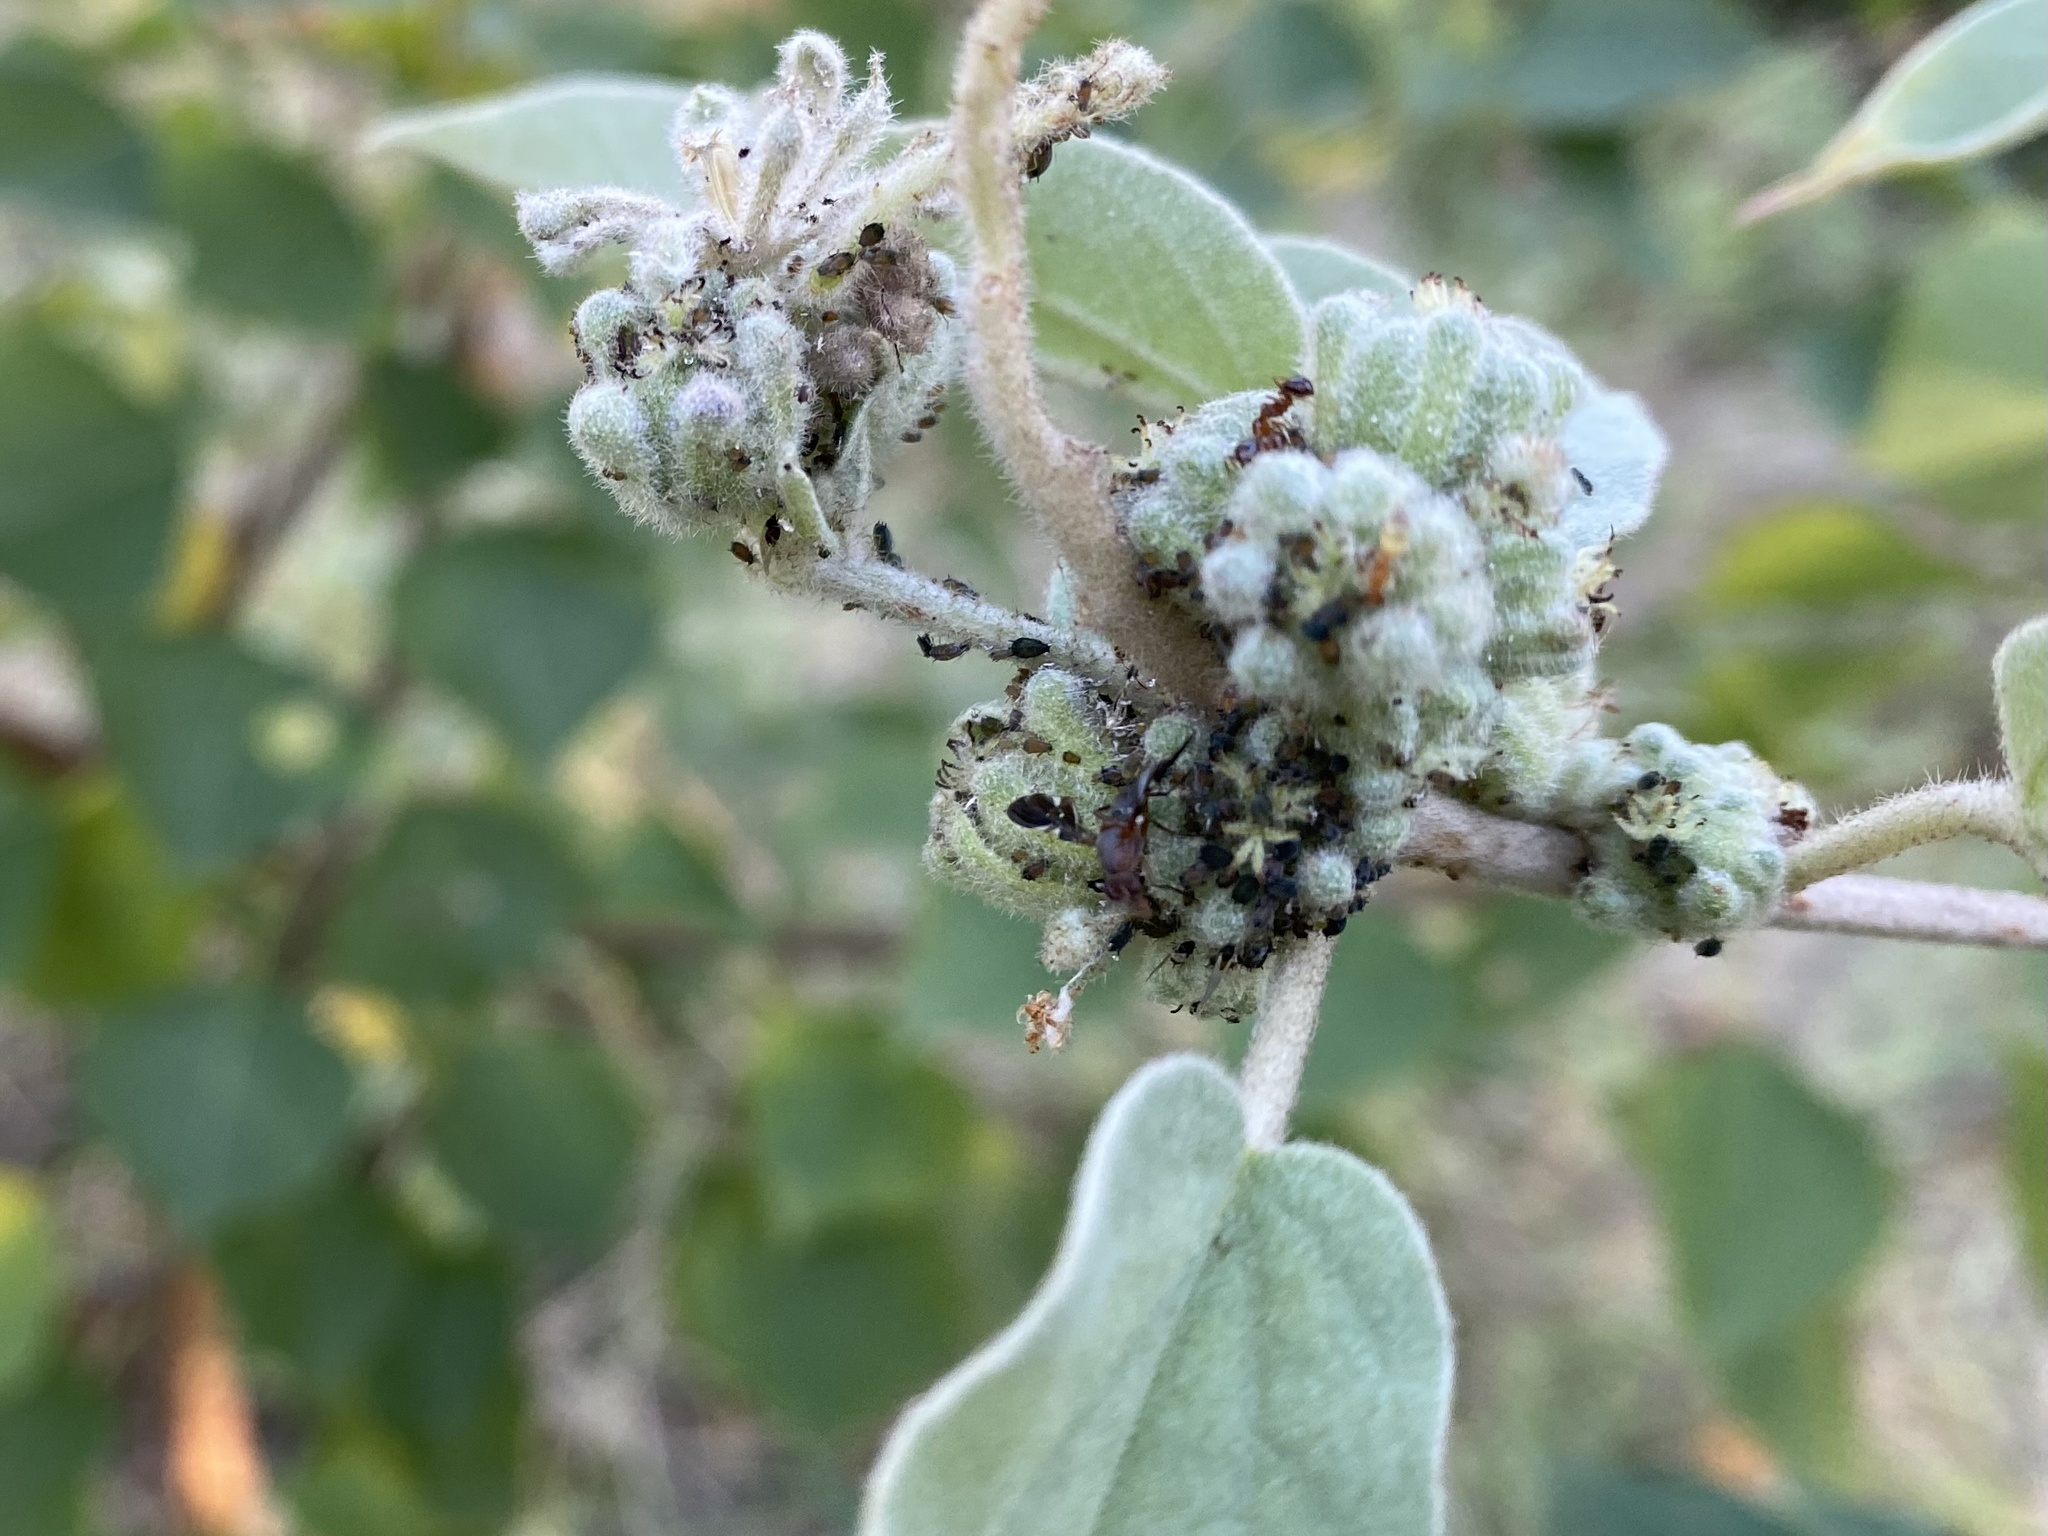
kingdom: Animalia
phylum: Arthropoda
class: Insecta
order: Diptera
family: Ulidiidae
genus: Delphinia
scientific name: Delphinia picta
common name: Common picture-winged fly
